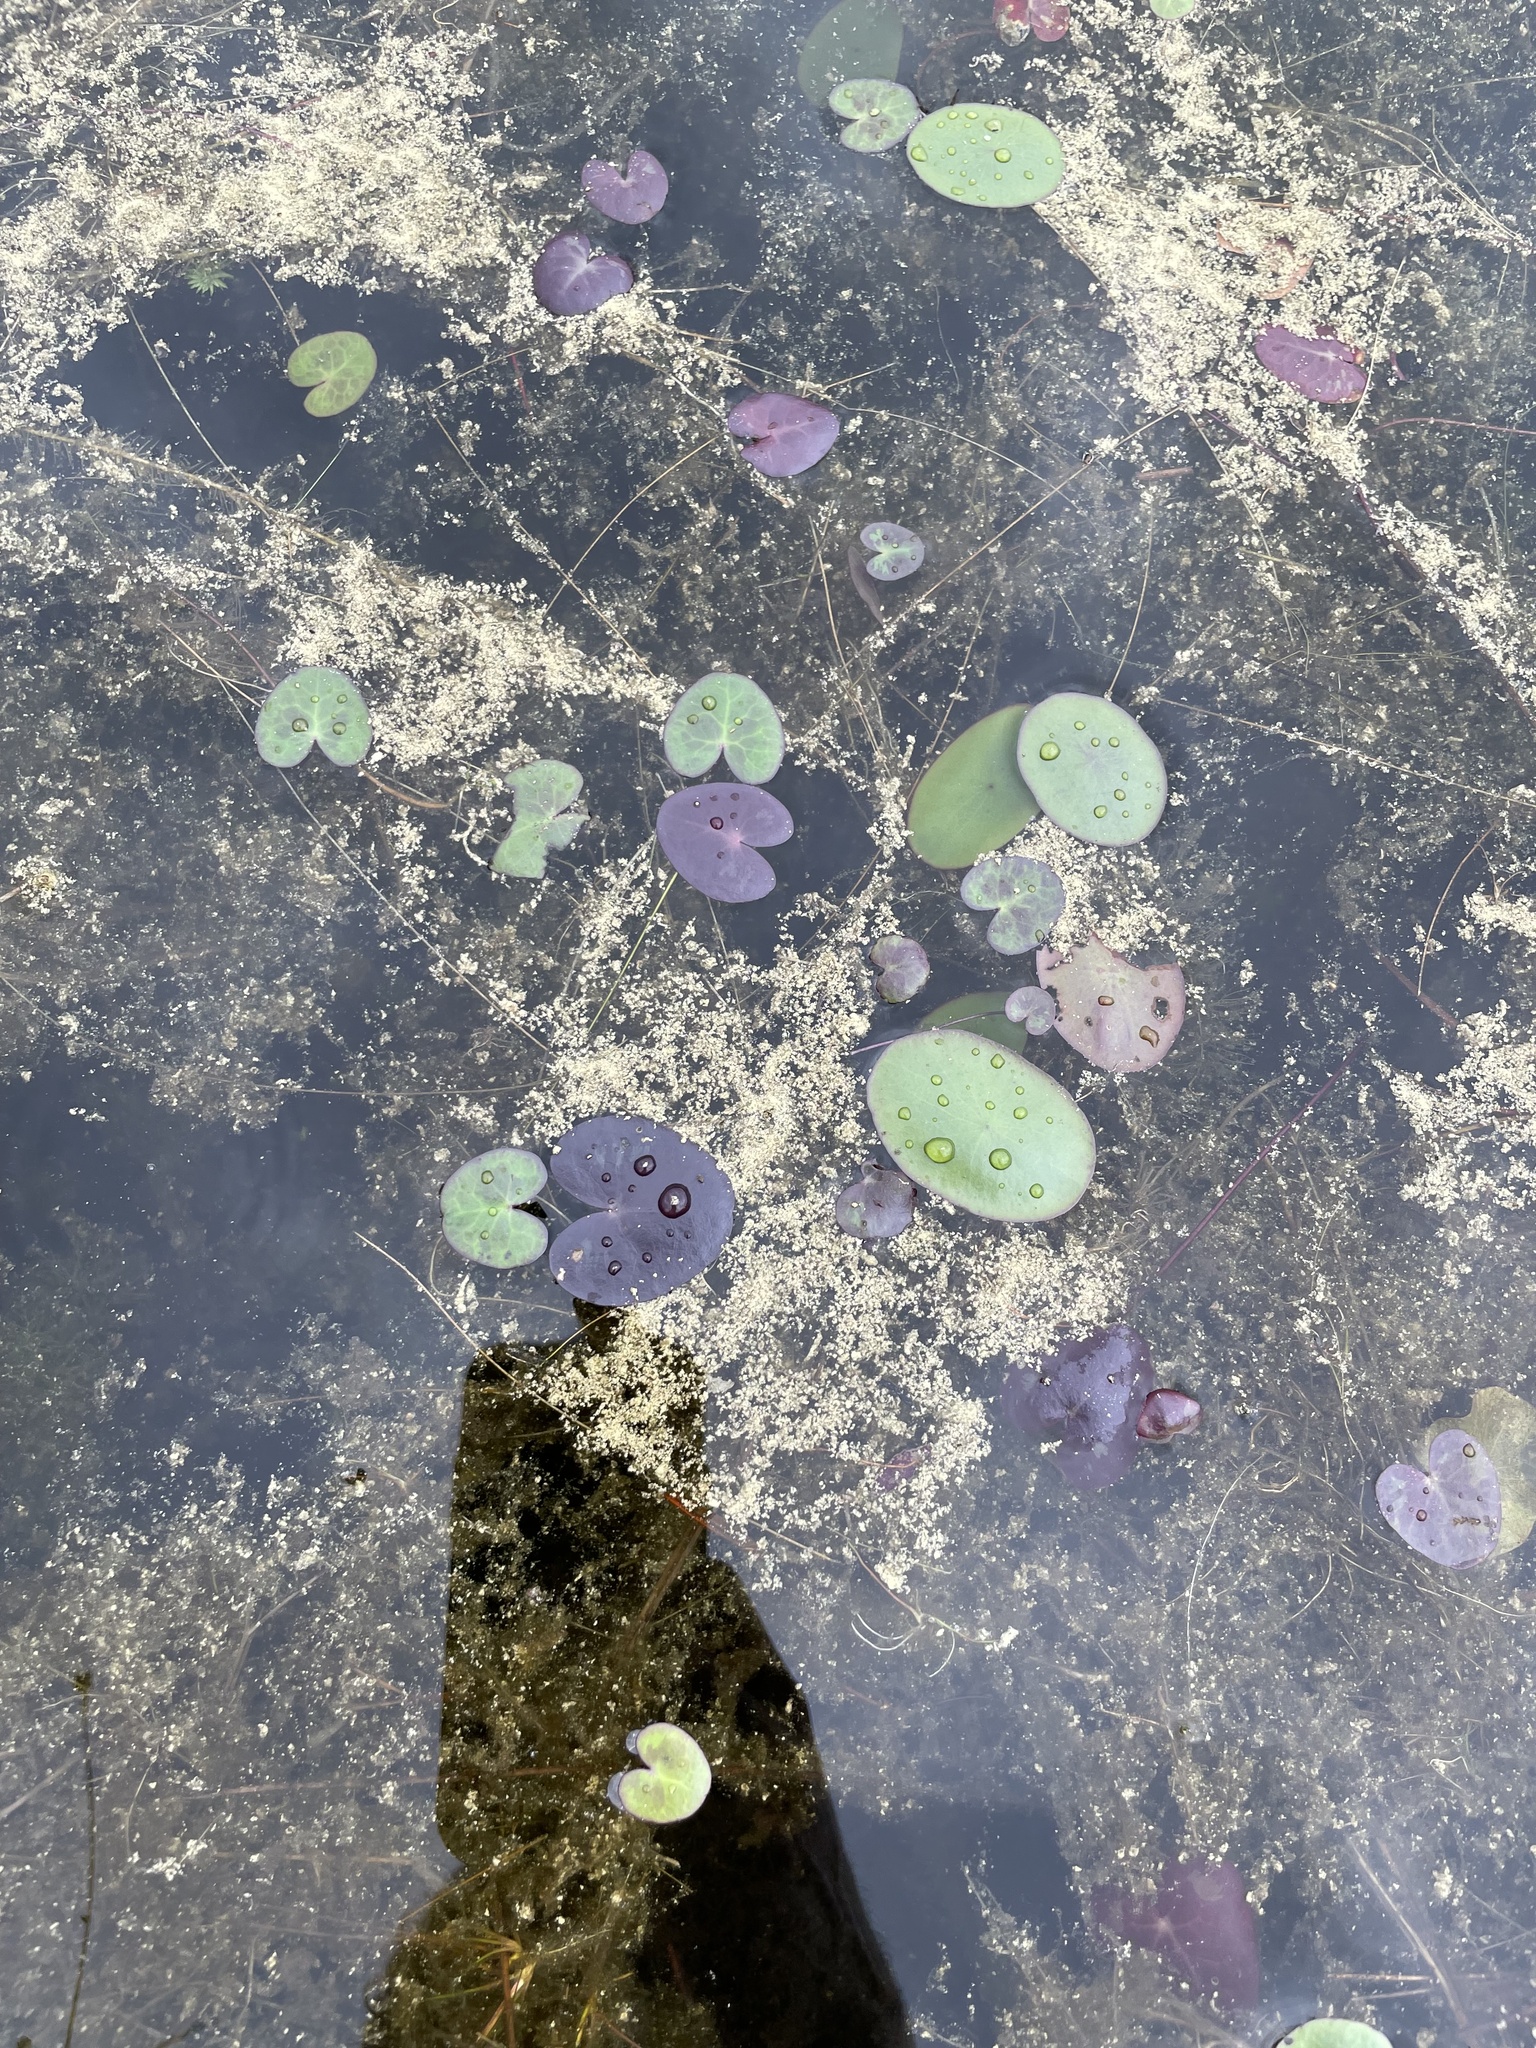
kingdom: Plantae
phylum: Tracheophyta
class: Magnoliopsida
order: Asterales
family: Menyanthaceae
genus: Nymphoides
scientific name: Nymphoides cordata
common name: Eight-angled floatingheart
